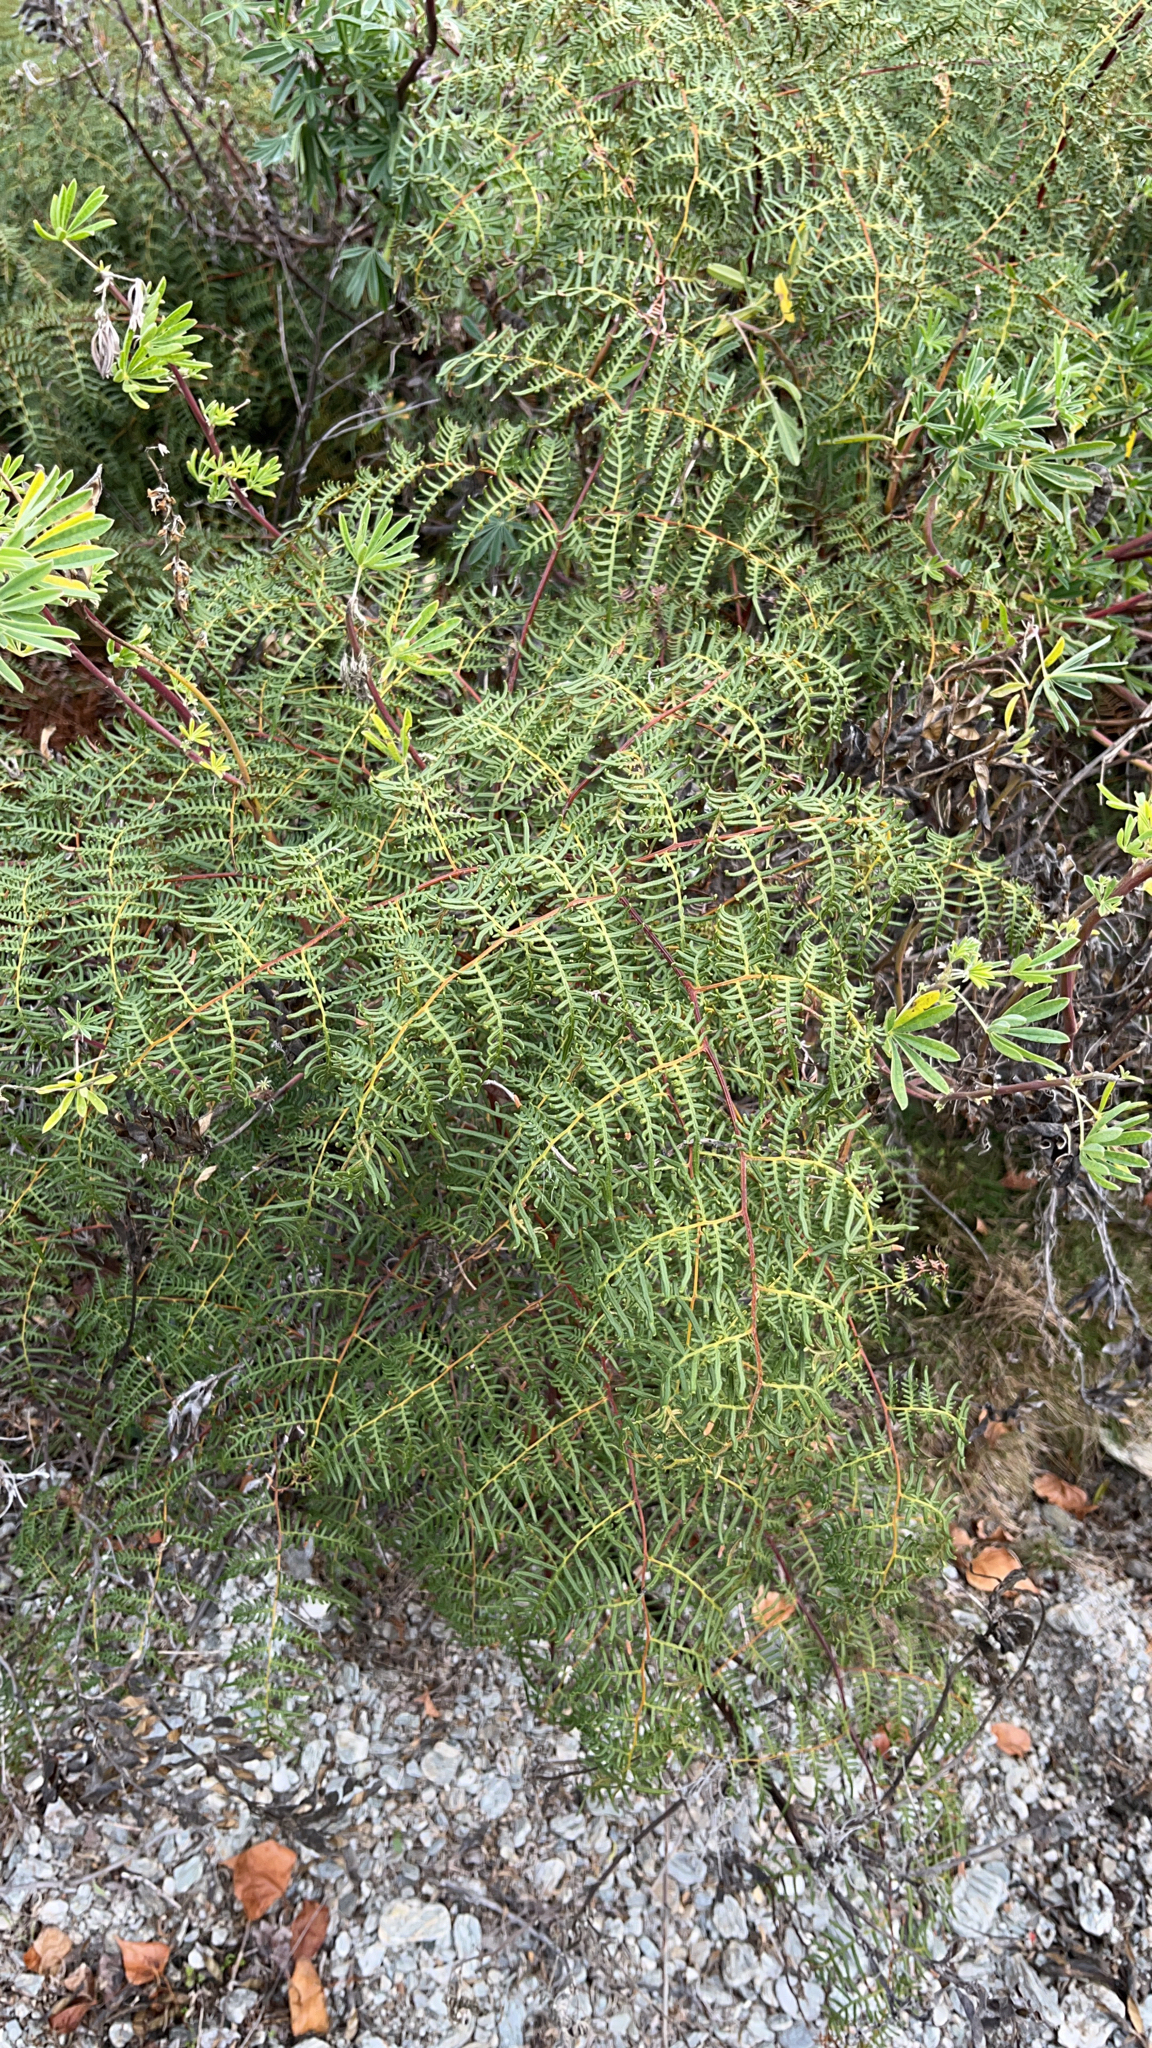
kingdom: Plantae
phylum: Tracheophyta
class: Polypodiopsida
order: Polypodiales
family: Dennstaedtiaceae
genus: Pteridium
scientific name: Pteridium esculentum
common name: Bracken fern
